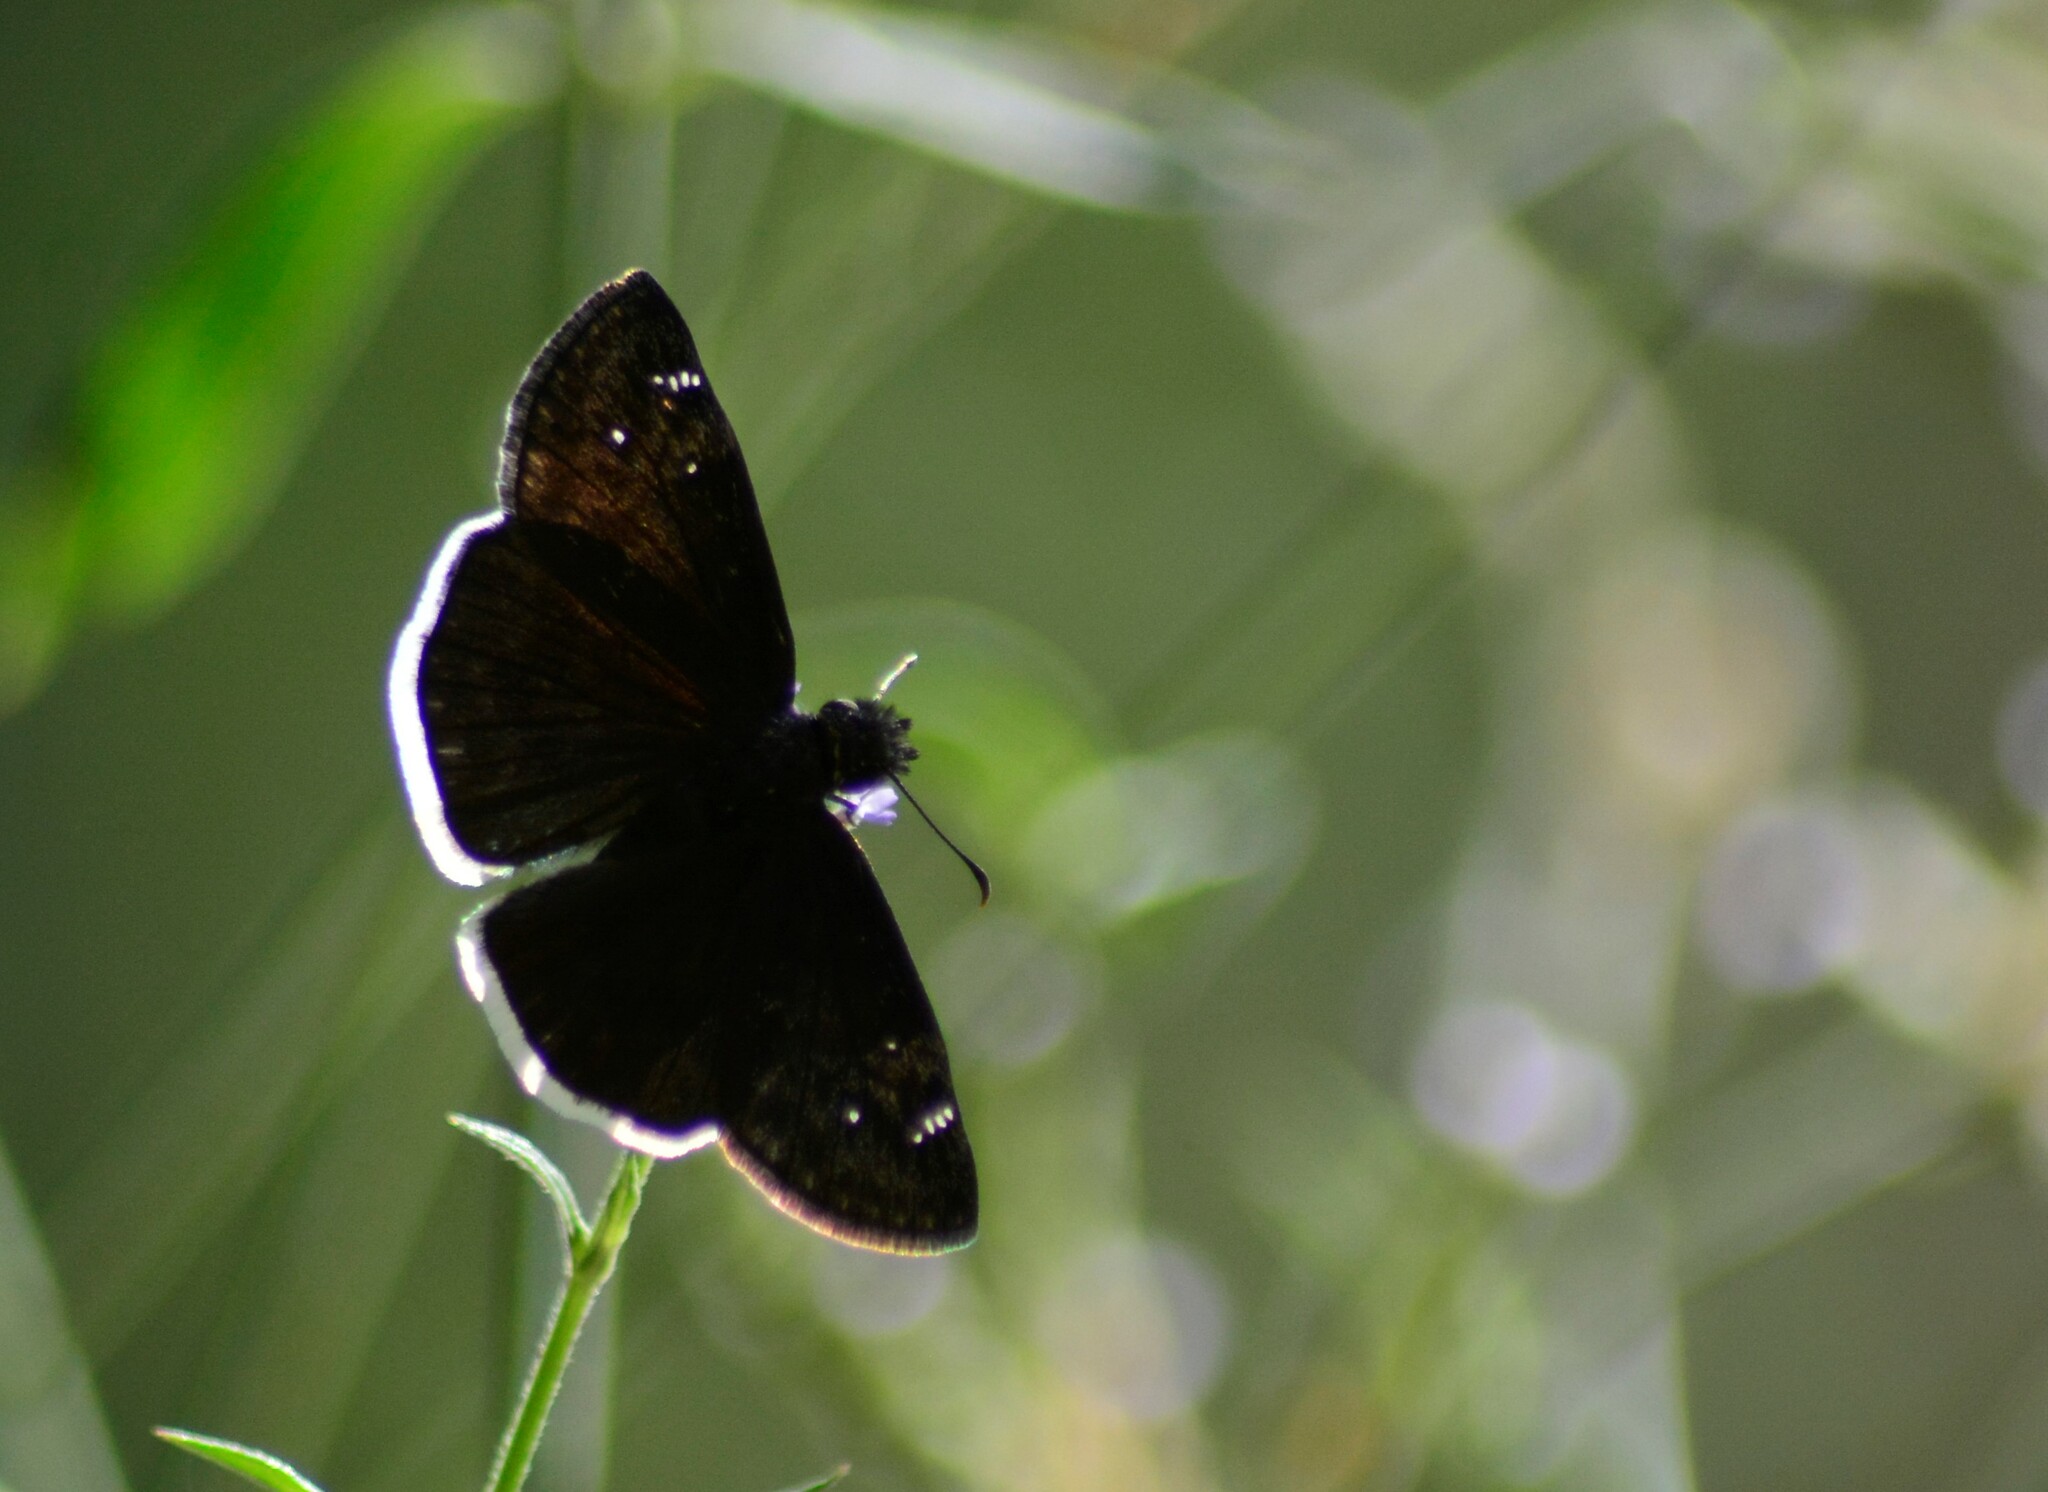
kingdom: Animalia
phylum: Arthropoda
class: Insecta
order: Lepidoptera
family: Hesperiidae
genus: Erynnis
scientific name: Erynnis funeralis
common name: Funereal duskywing
